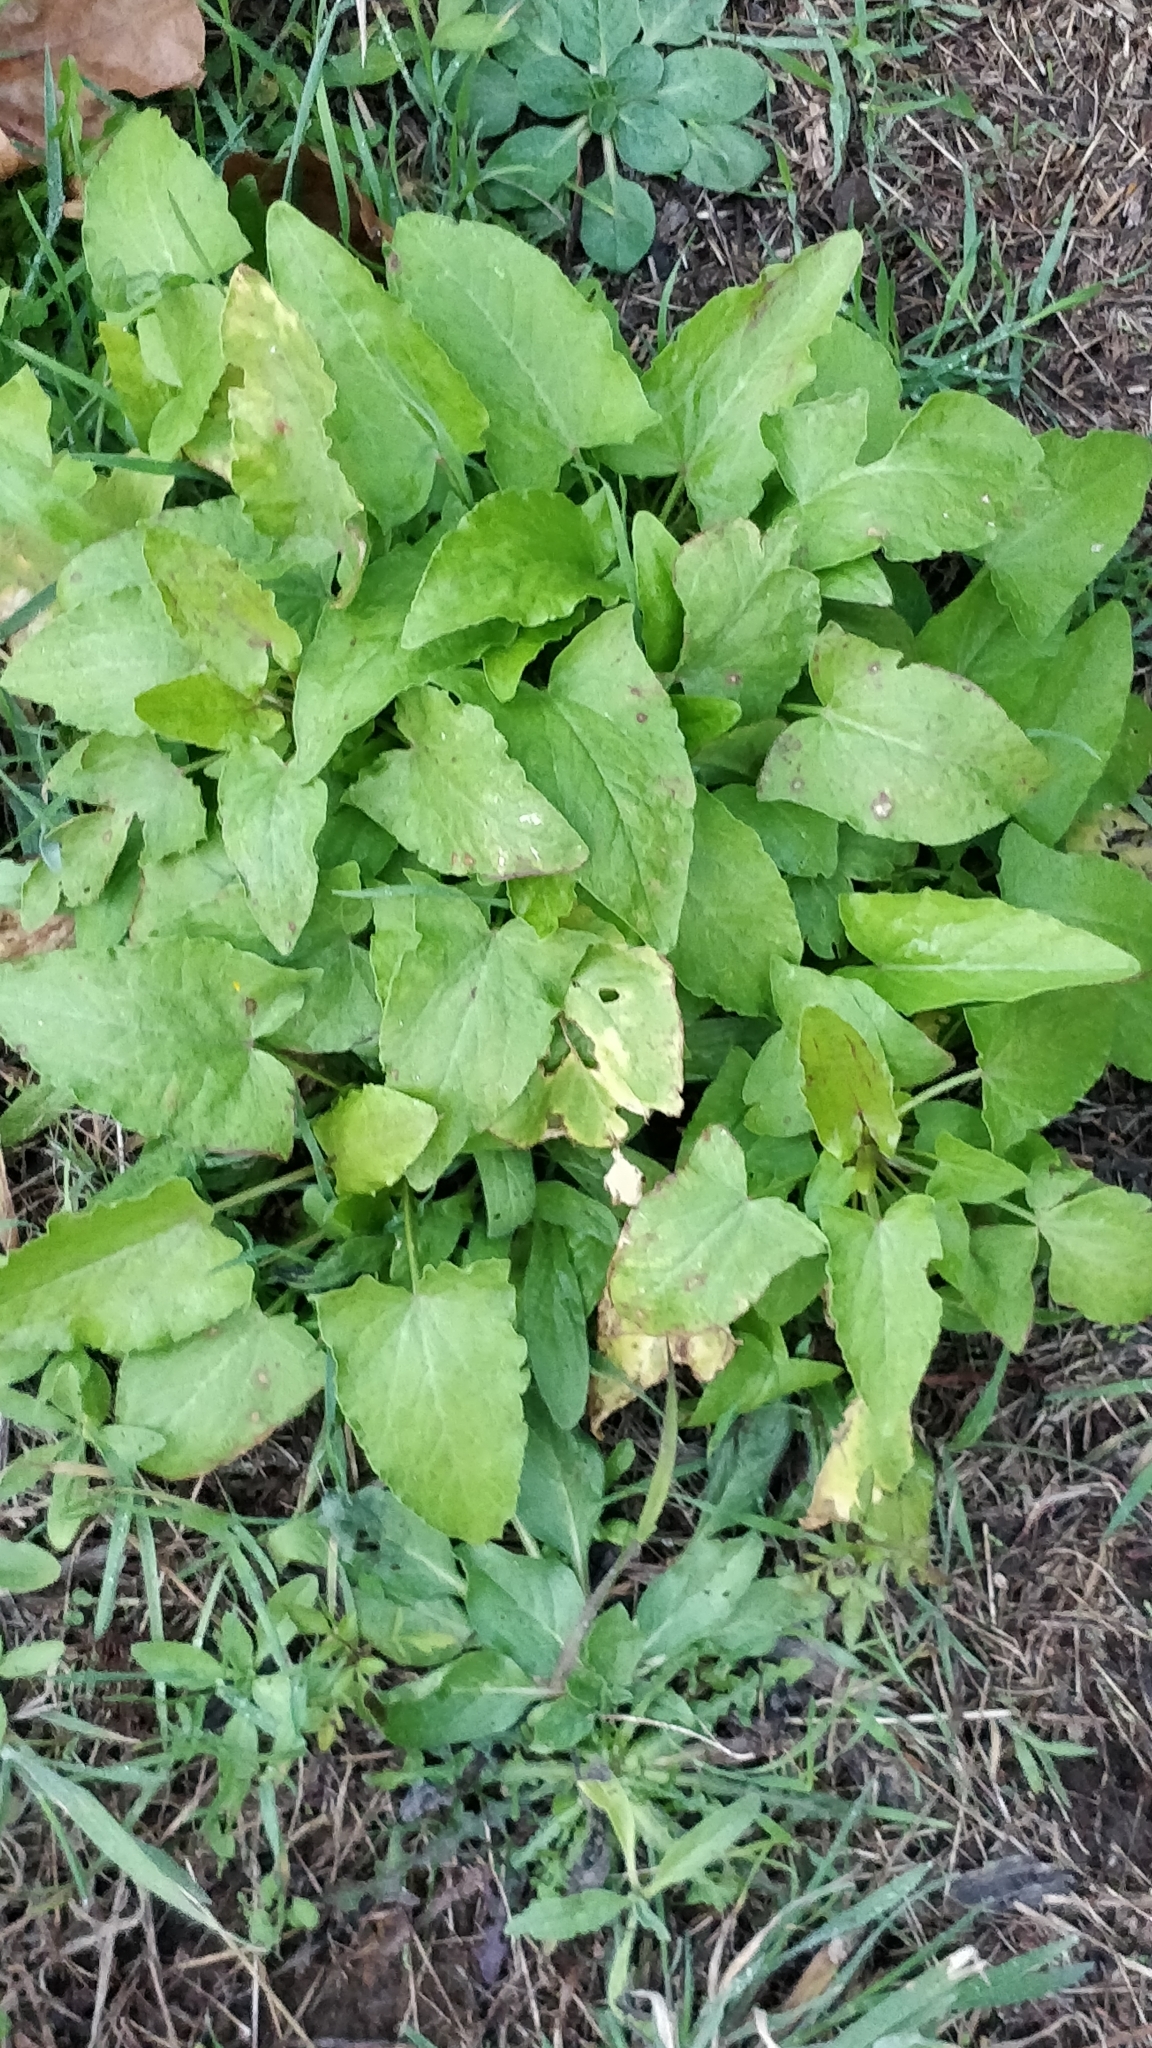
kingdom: Plantae
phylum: Tracheophyta
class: Magnoliopsida
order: Caryophyllales
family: Polygonaceae
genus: Rumex
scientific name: Rumex maderensis
